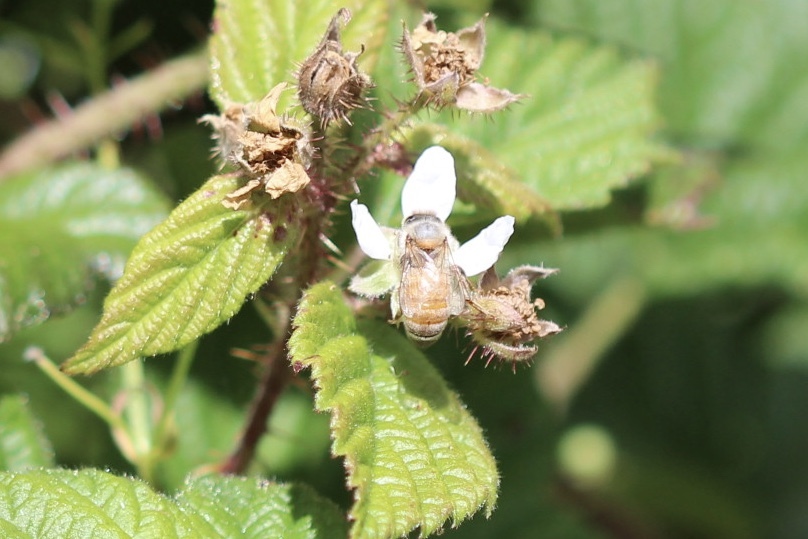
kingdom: Animalia
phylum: Arthropoda
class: Insecta
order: Hymenoptera
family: Apidae
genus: Apis
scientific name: Apis mellifera
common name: Honey bee
